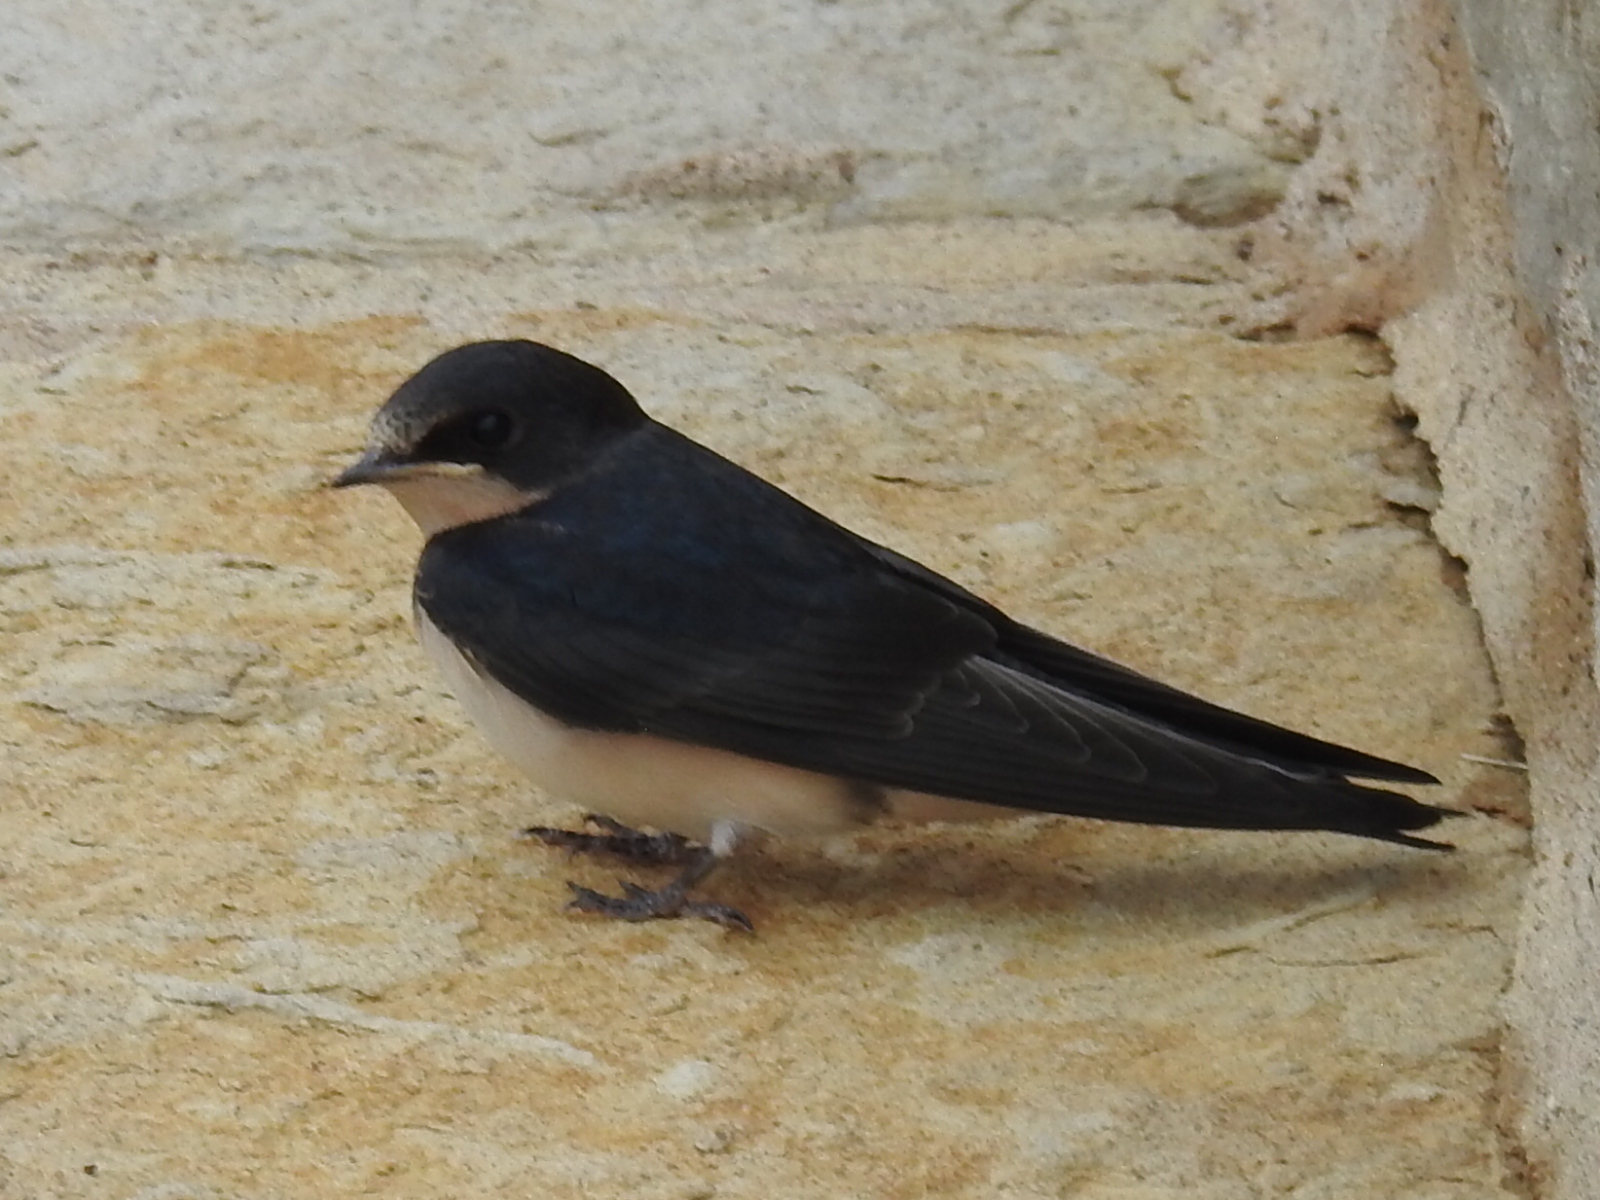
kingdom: Animalia
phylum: Chordata
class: Aves
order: Passeriformes
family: Hirundinidae
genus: Hirundo
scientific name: Hirundo rustica
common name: Barn swallow
